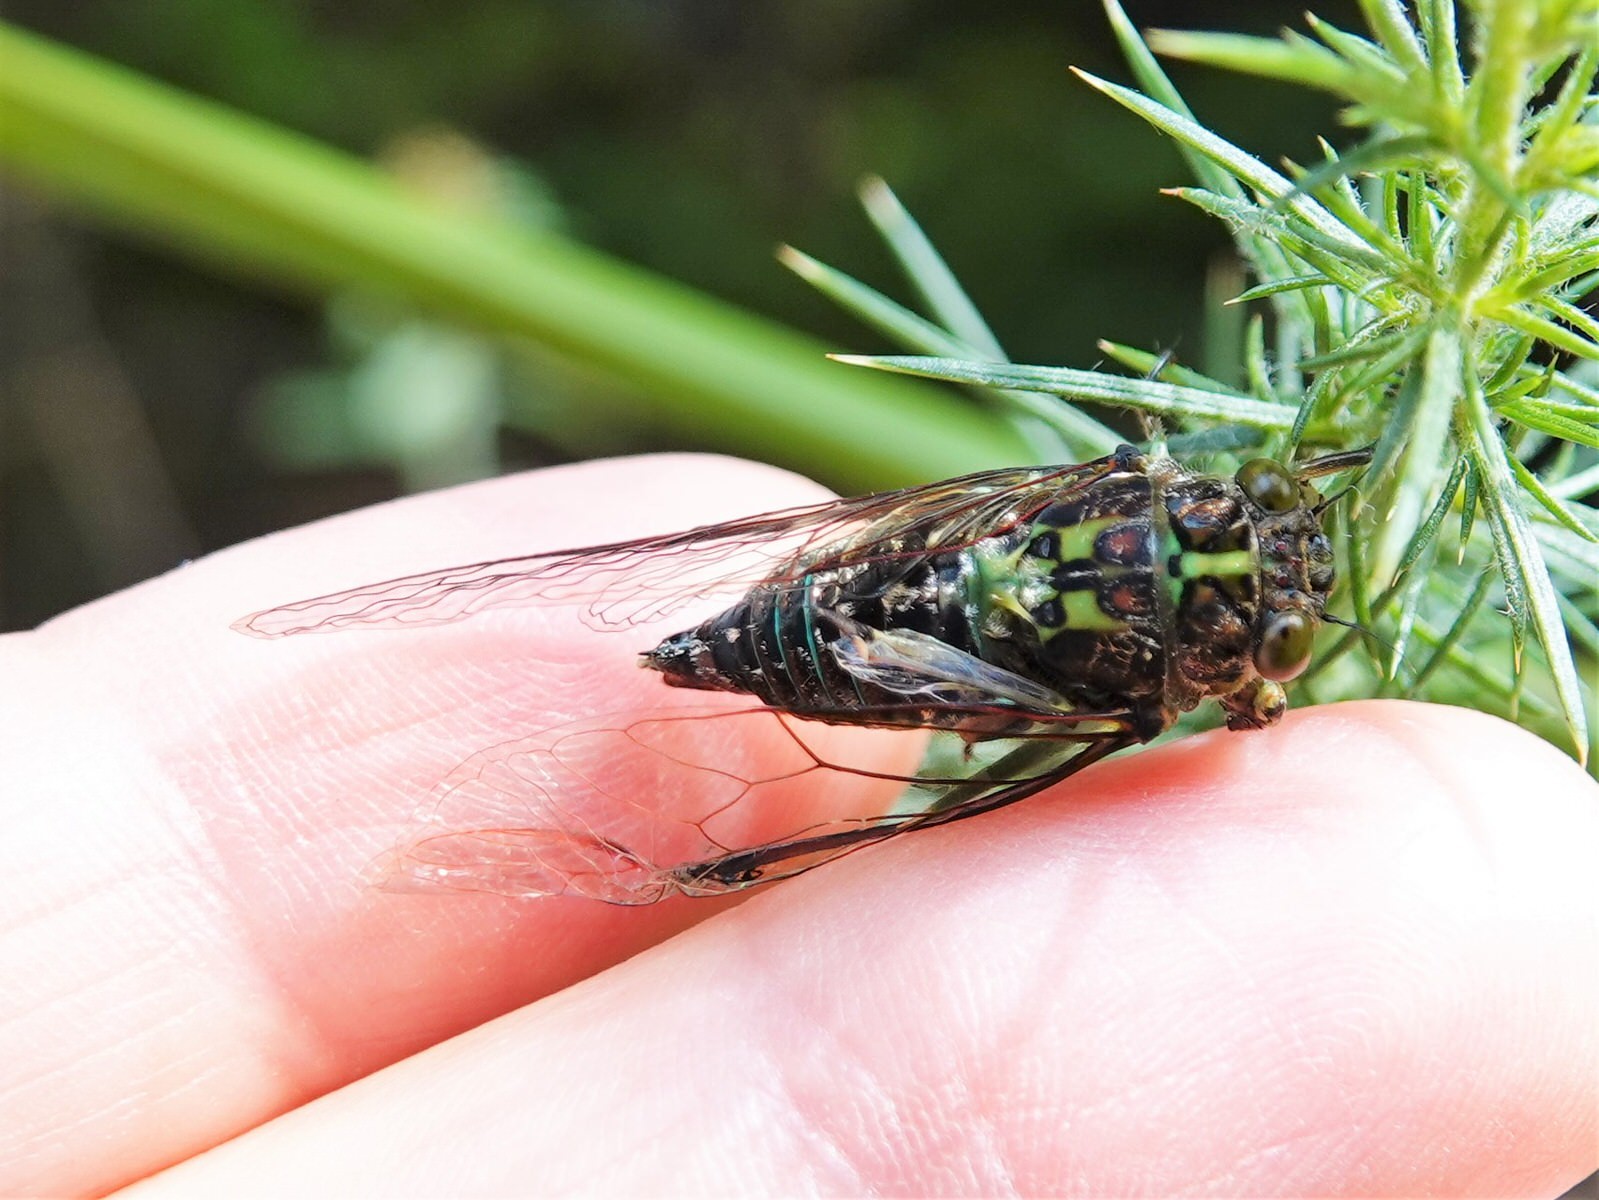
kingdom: Animalia
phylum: Arthropoda
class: Insecta
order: Hemiptera
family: Cicadidae
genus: Kikihia
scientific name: Kikihia cauta
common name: Greater bronze cicada
